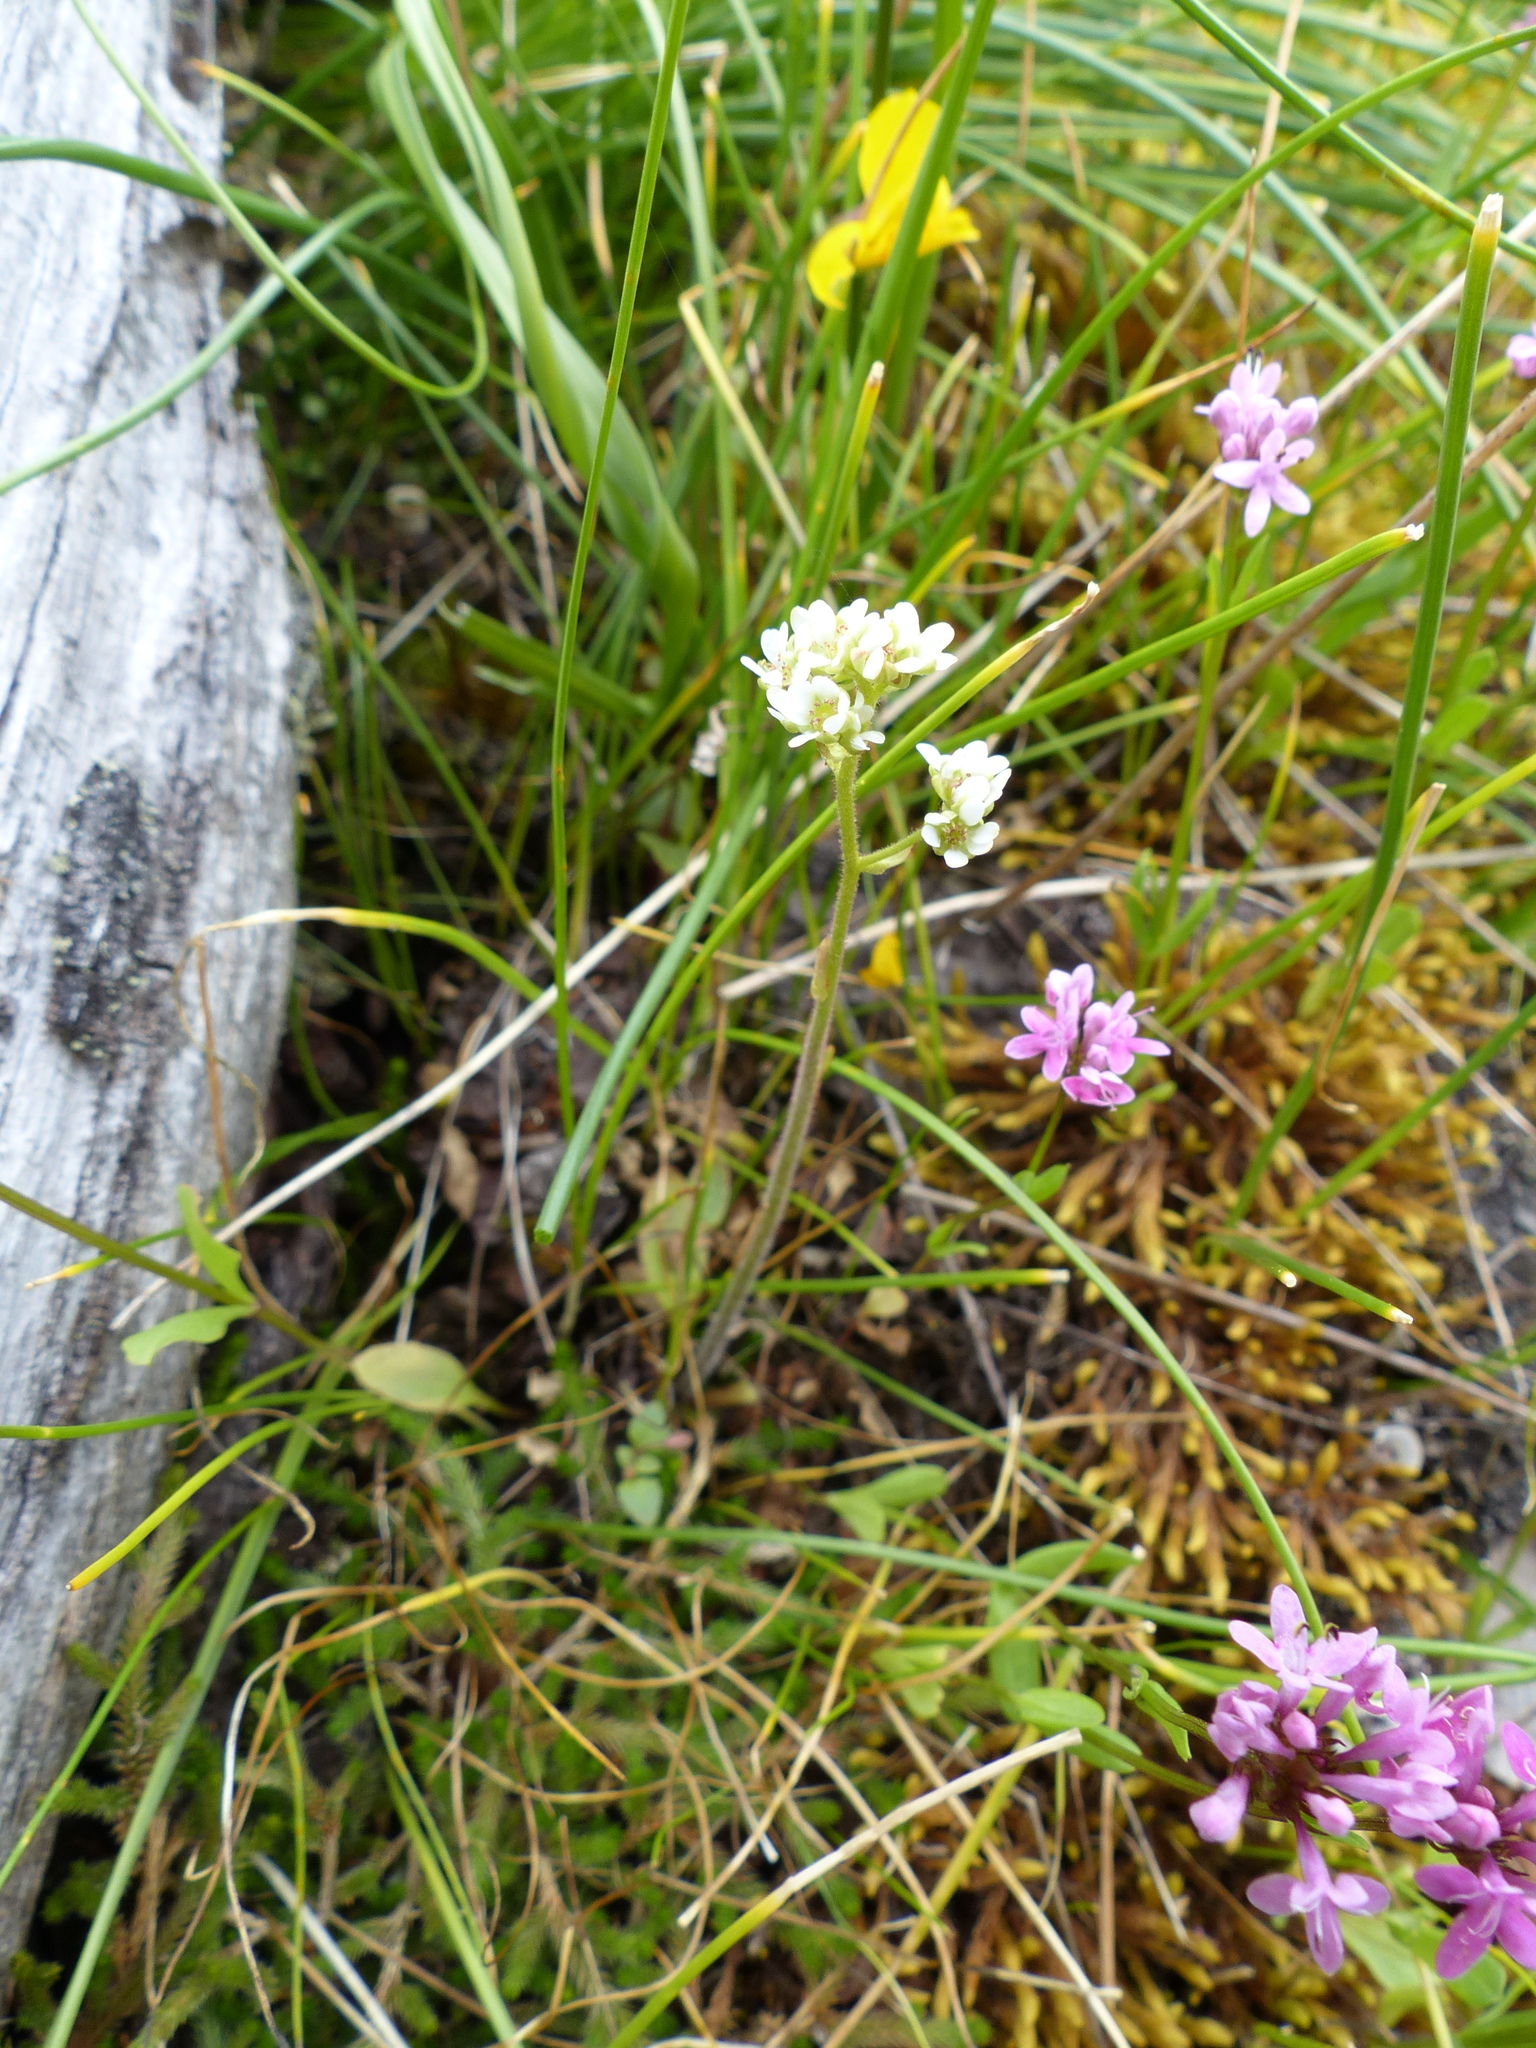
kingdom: Plantae
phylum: Tracheophyta
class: Magnoliopsida
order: Saxifragales
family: Saxifragaceae
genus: Micranthes
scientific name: Micranthes integrifolia
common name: Wholeleaf saxifrage
